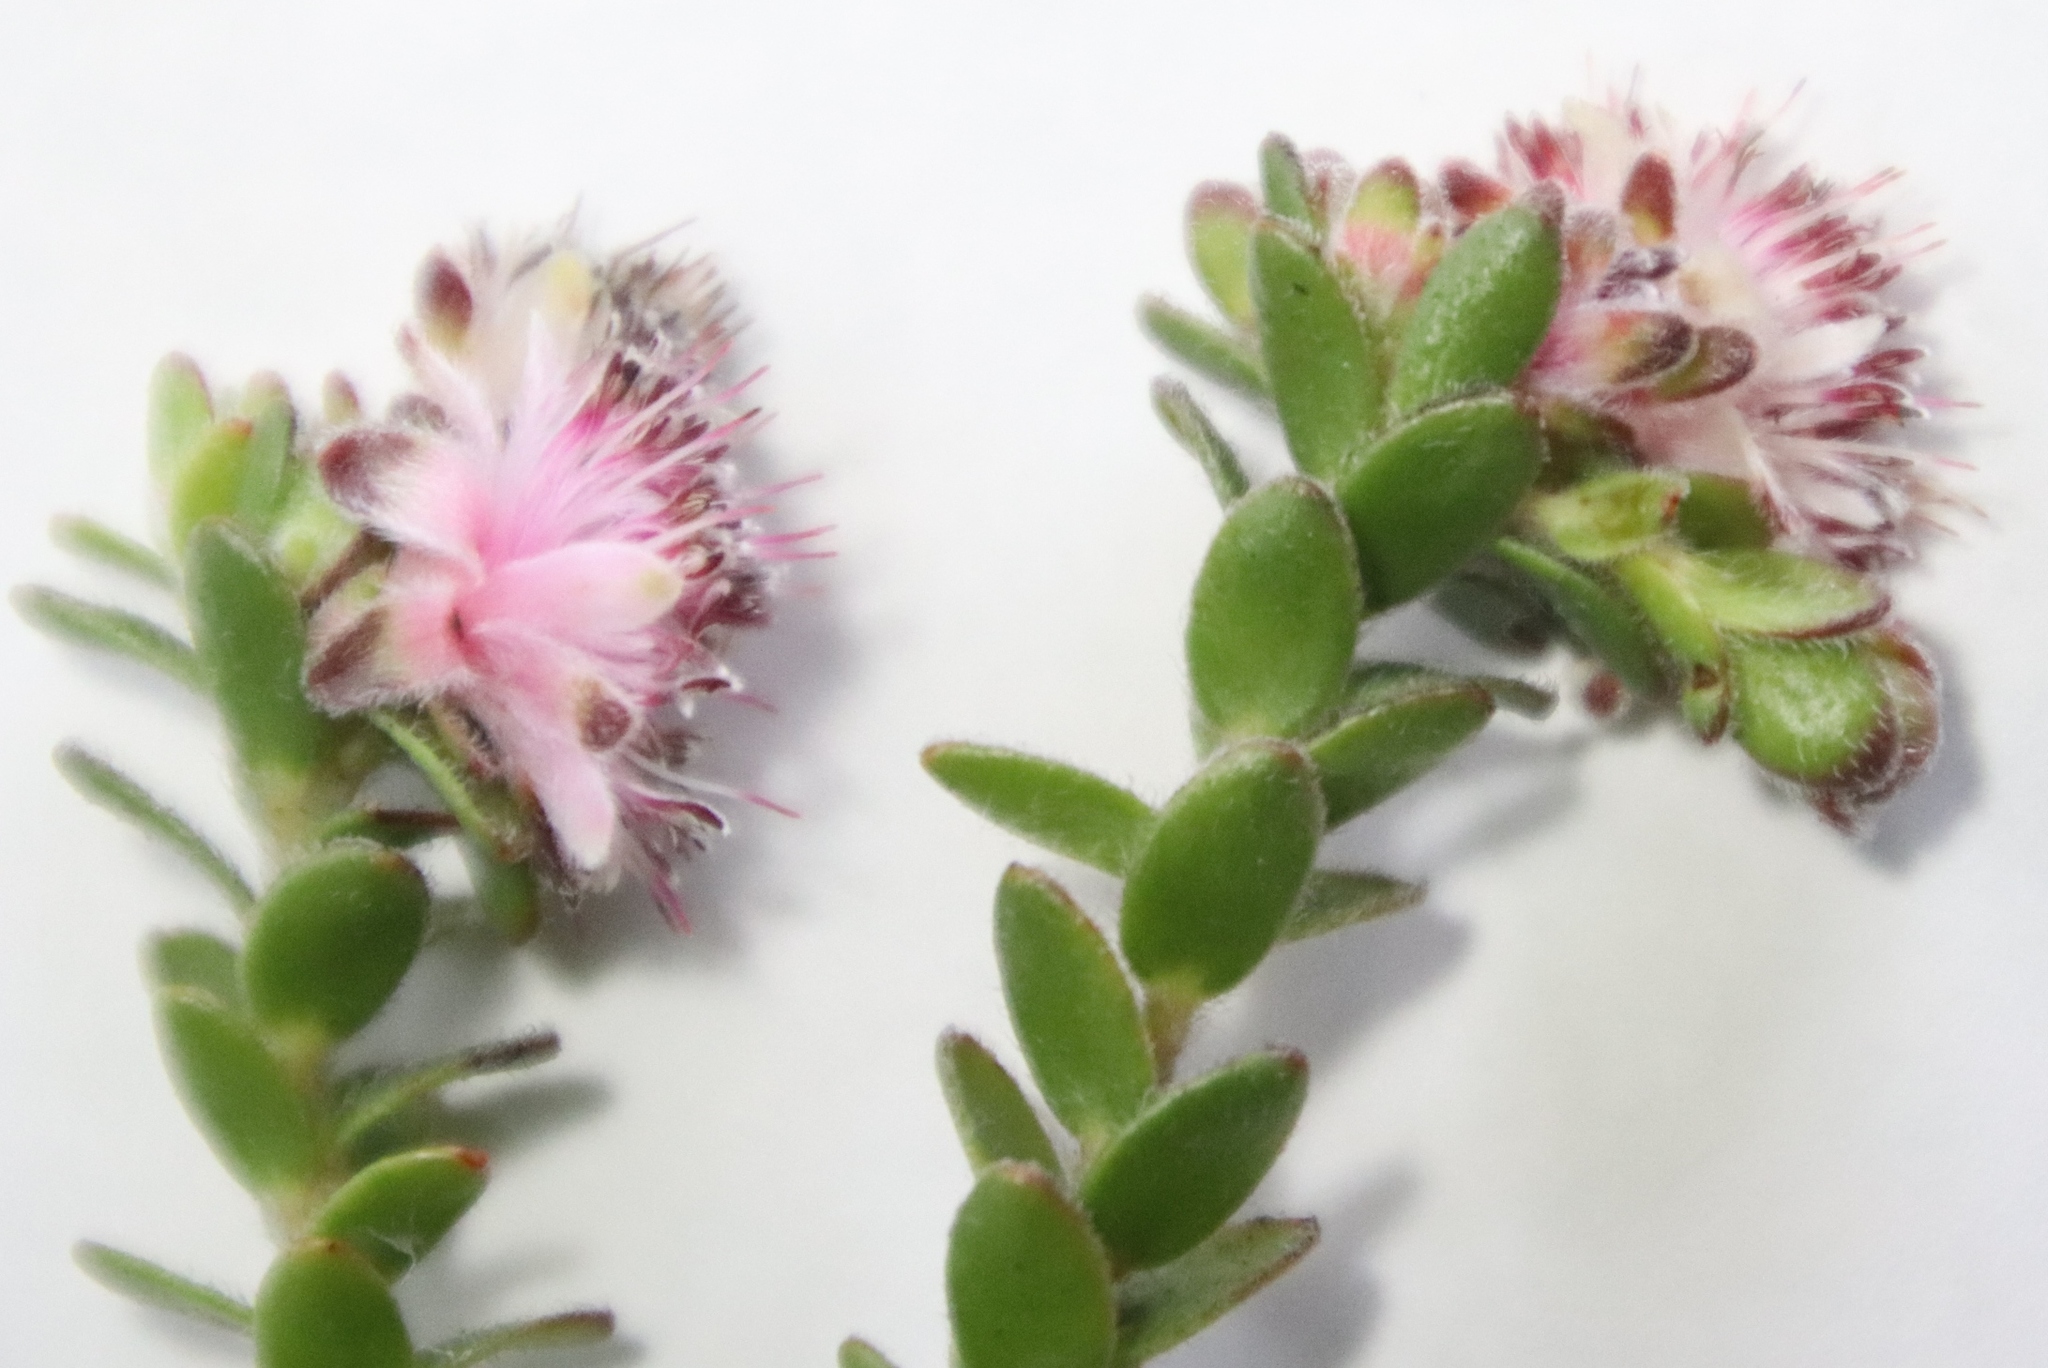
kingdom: Plantae
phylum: Tracheophyta
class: Magnoliopsida
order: Proteales
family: Proteaceae
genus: Diastella
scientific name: Diastella divaricata
